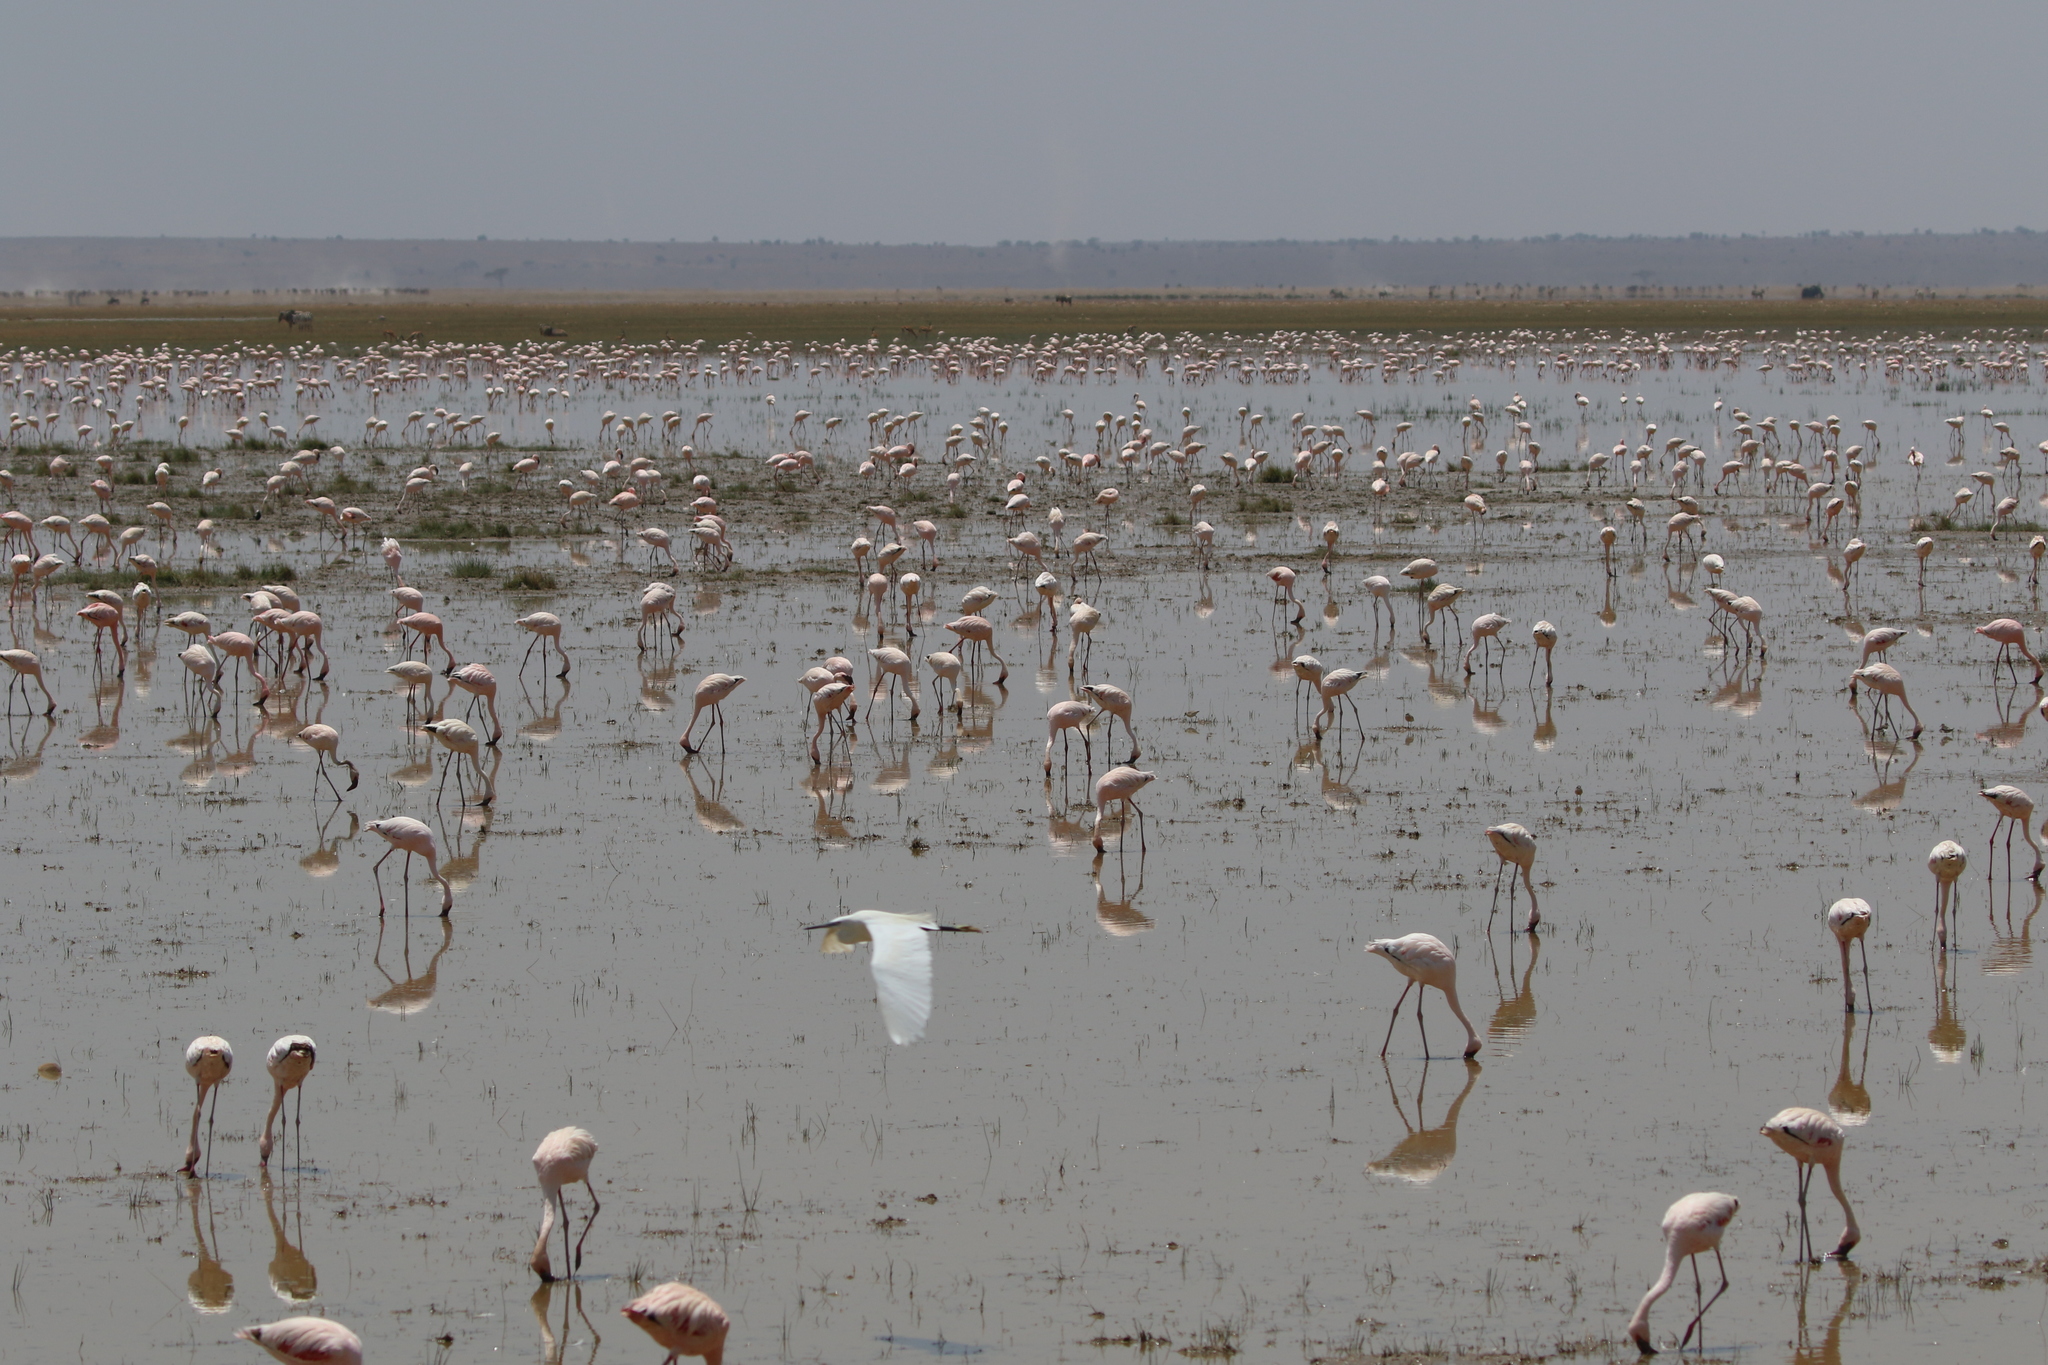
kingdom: Animalia
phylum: Chordata
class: Aves
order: Pelecaniformes
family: Ardeidae
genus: Egretta
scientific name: Egretta garzetta
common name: Little egret
